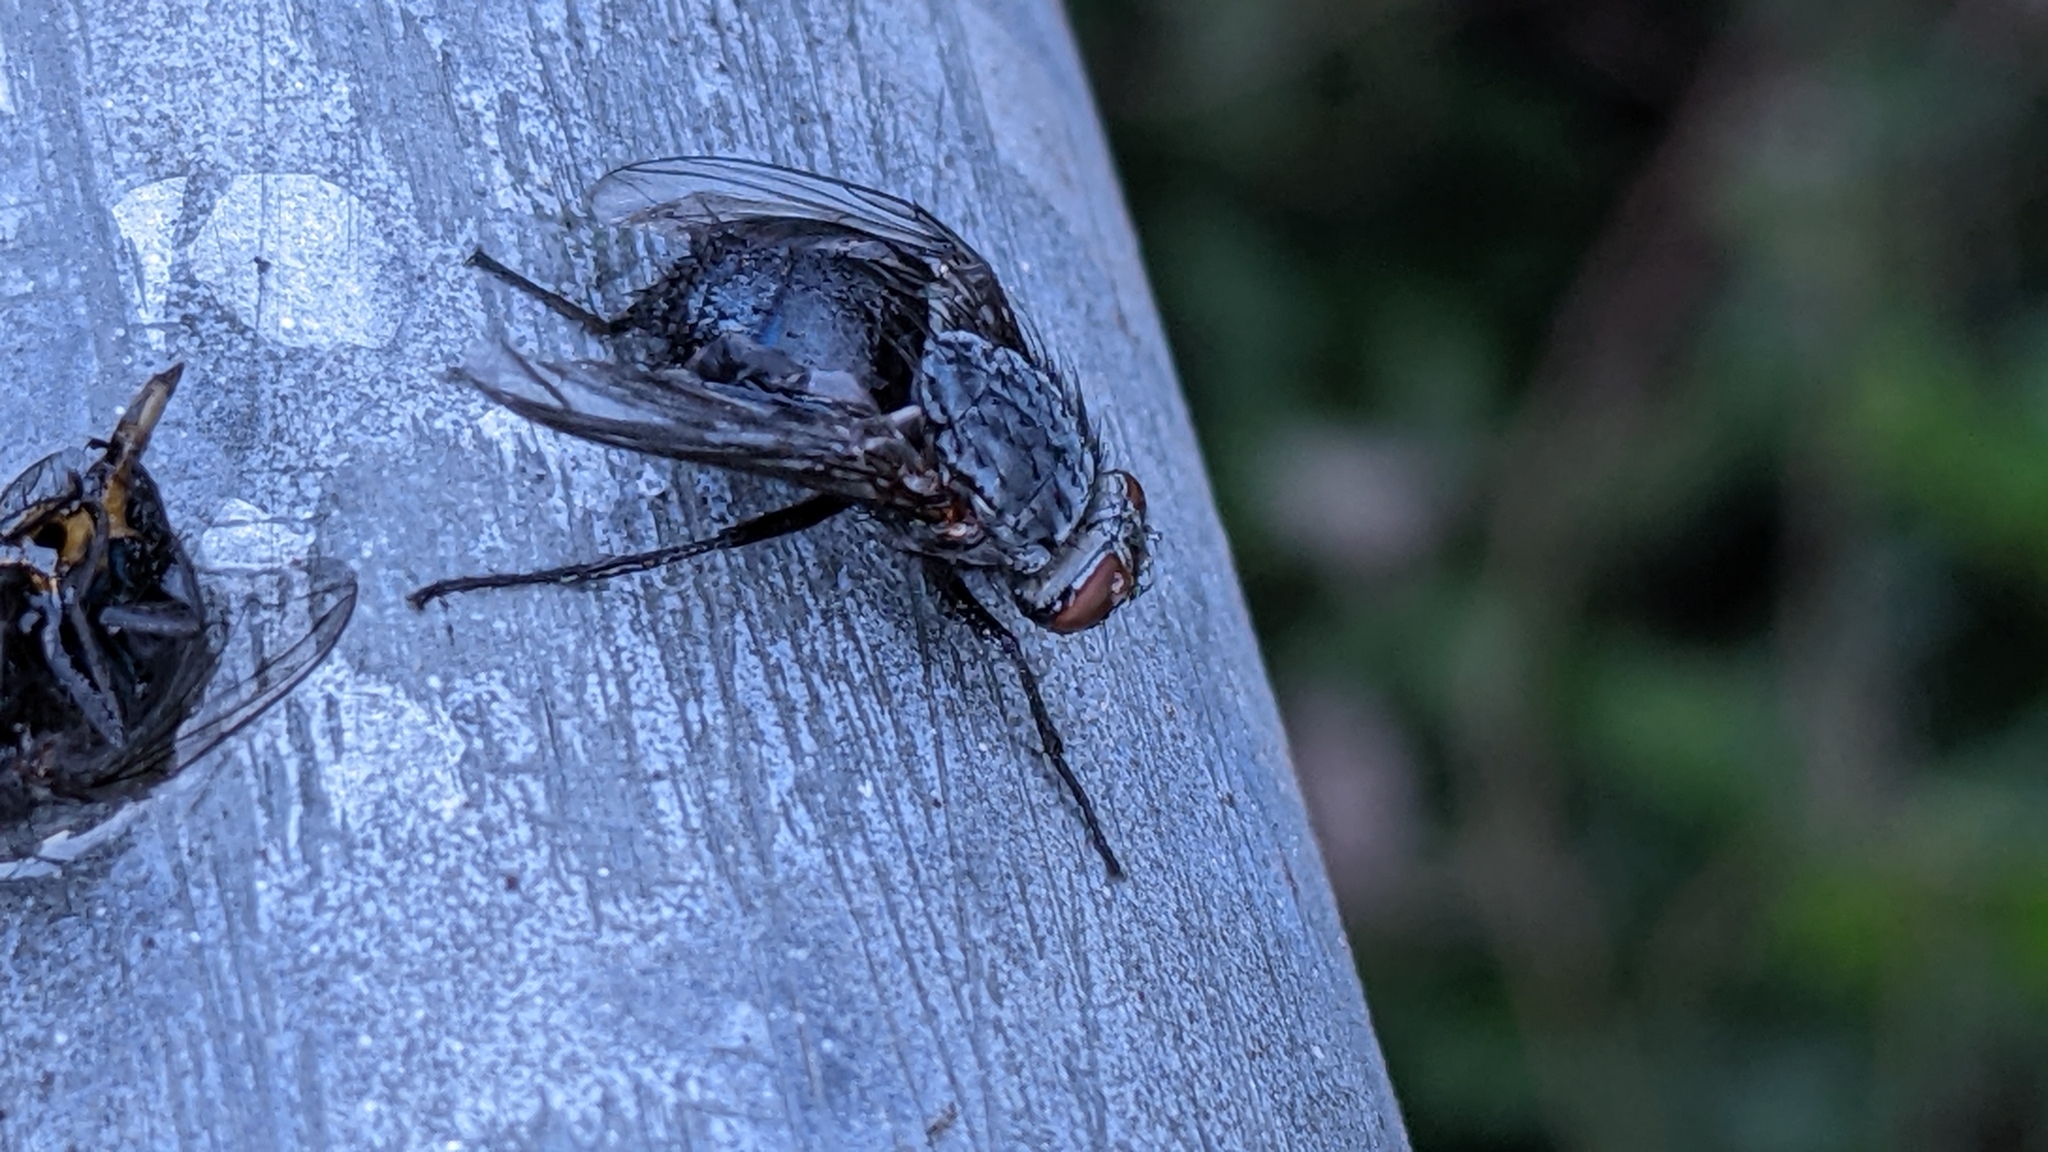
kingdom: Animalia
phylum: Arthropoda
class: Insecta
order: Diptera
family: Calliphoridae
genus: Calliphora
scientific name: Calliphora vicina
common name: Common blow flie
